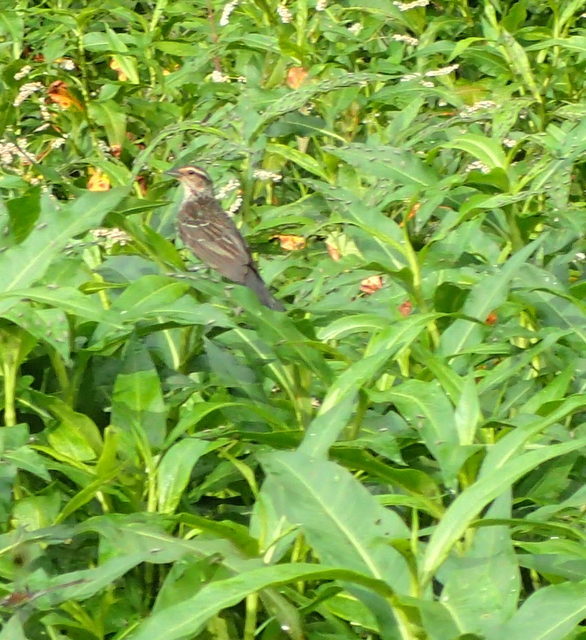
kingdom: Animalia
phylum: Chordata
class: Aves
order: Passeriformes
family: Icteridae
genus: Agelaius
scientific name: Agelaius phoeniceus
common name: Red-winged blackbird
